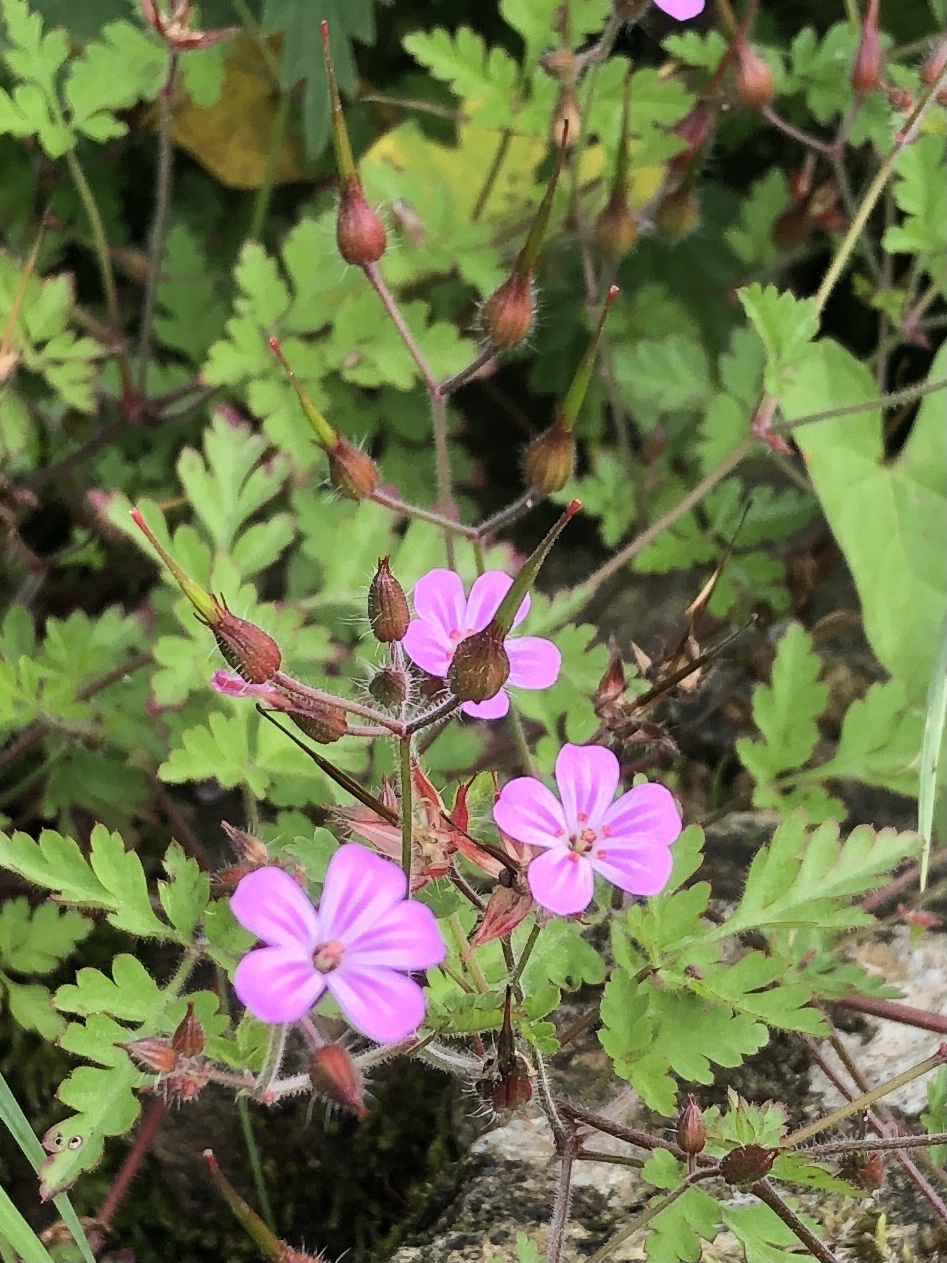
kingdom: Plantae
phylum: Tracheophyta
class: Magnoliopsida
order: Geraniales
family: Geraniaceae
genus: Geranium
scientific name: Geranium robertianum
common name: Herb-robert
